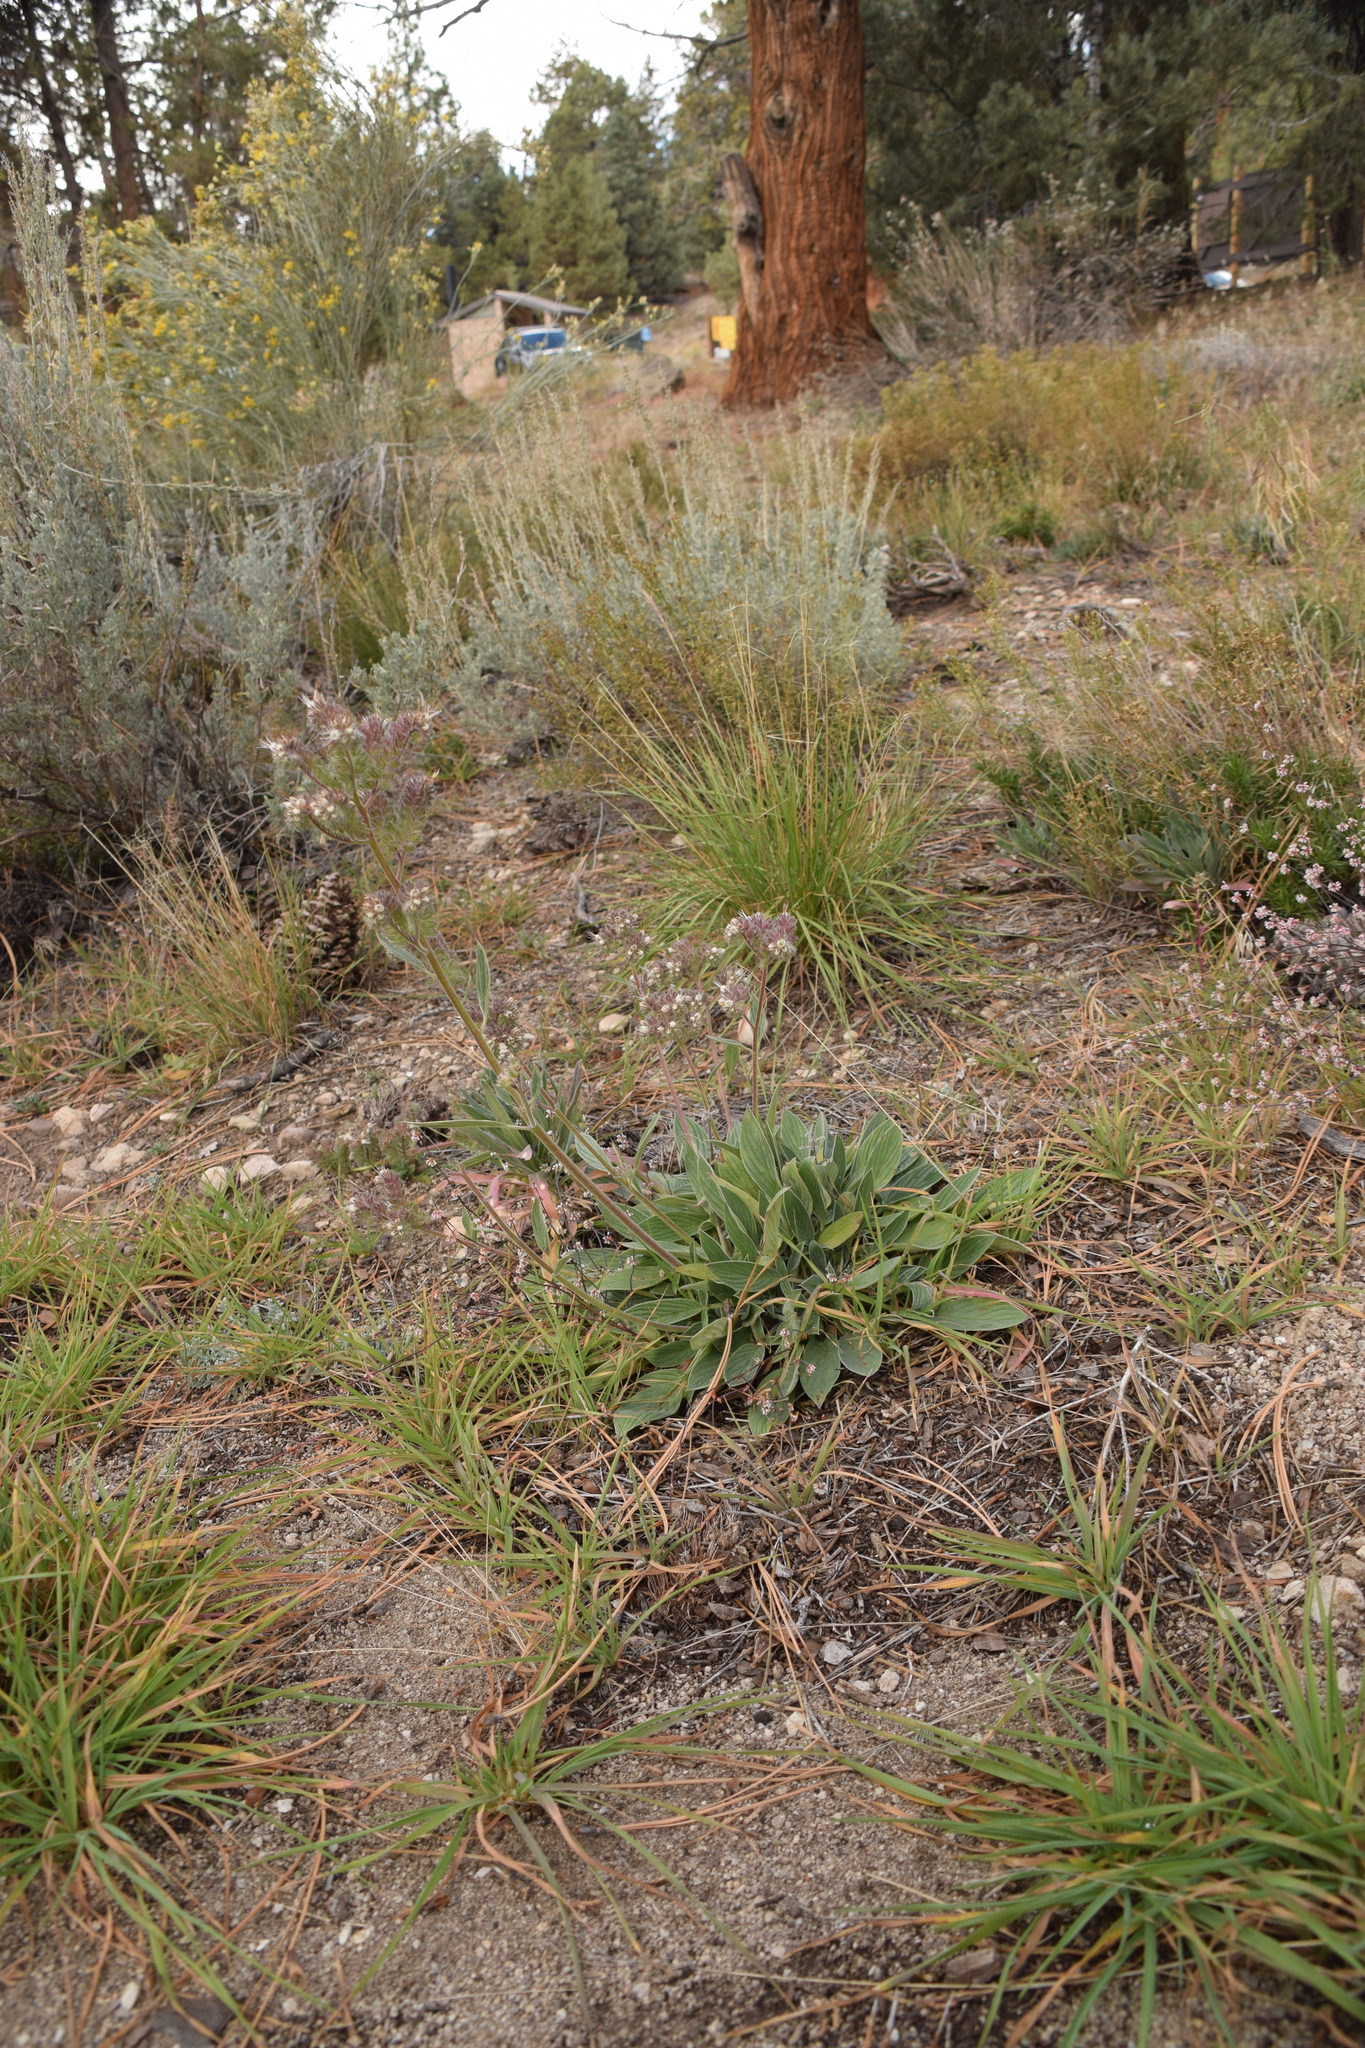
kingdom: Plantae
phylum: Tracheophyta
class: Magnoliopsida
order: Boraginales
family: Hydrophyllaceae
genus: Phacelia
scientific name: Phacelia imbricata
